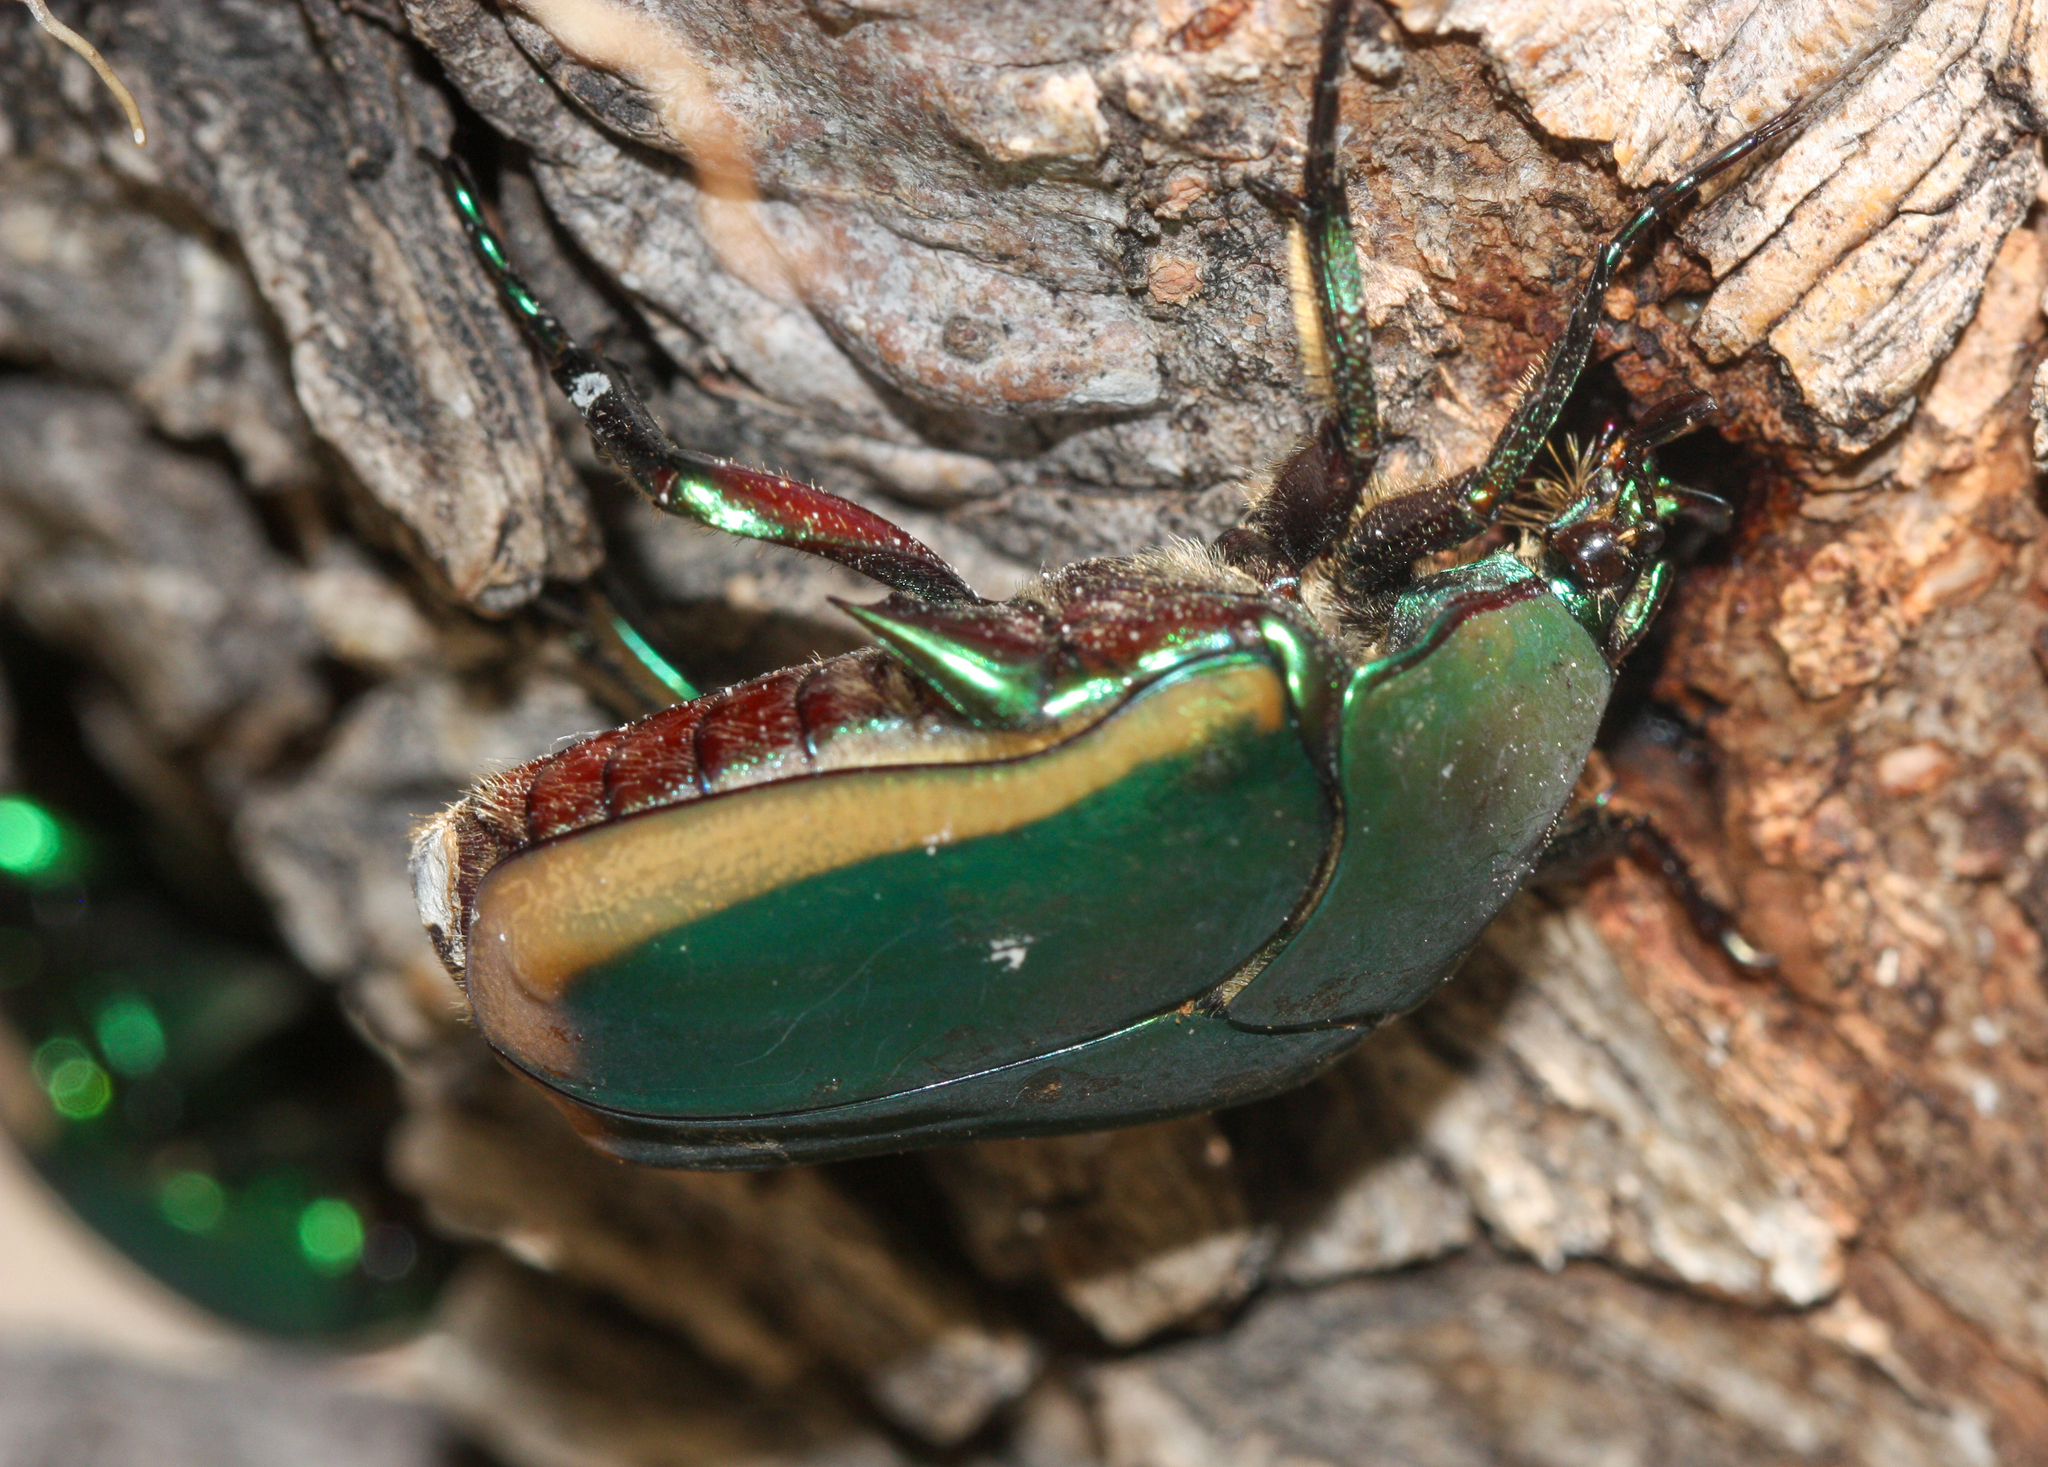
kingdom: Animalia
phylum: Arthropoda
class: Insecta
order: Coleoptera
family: Scarabaeidae
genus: Cotinis
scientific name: Cotinis mutabilis
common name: Figeater beetle
